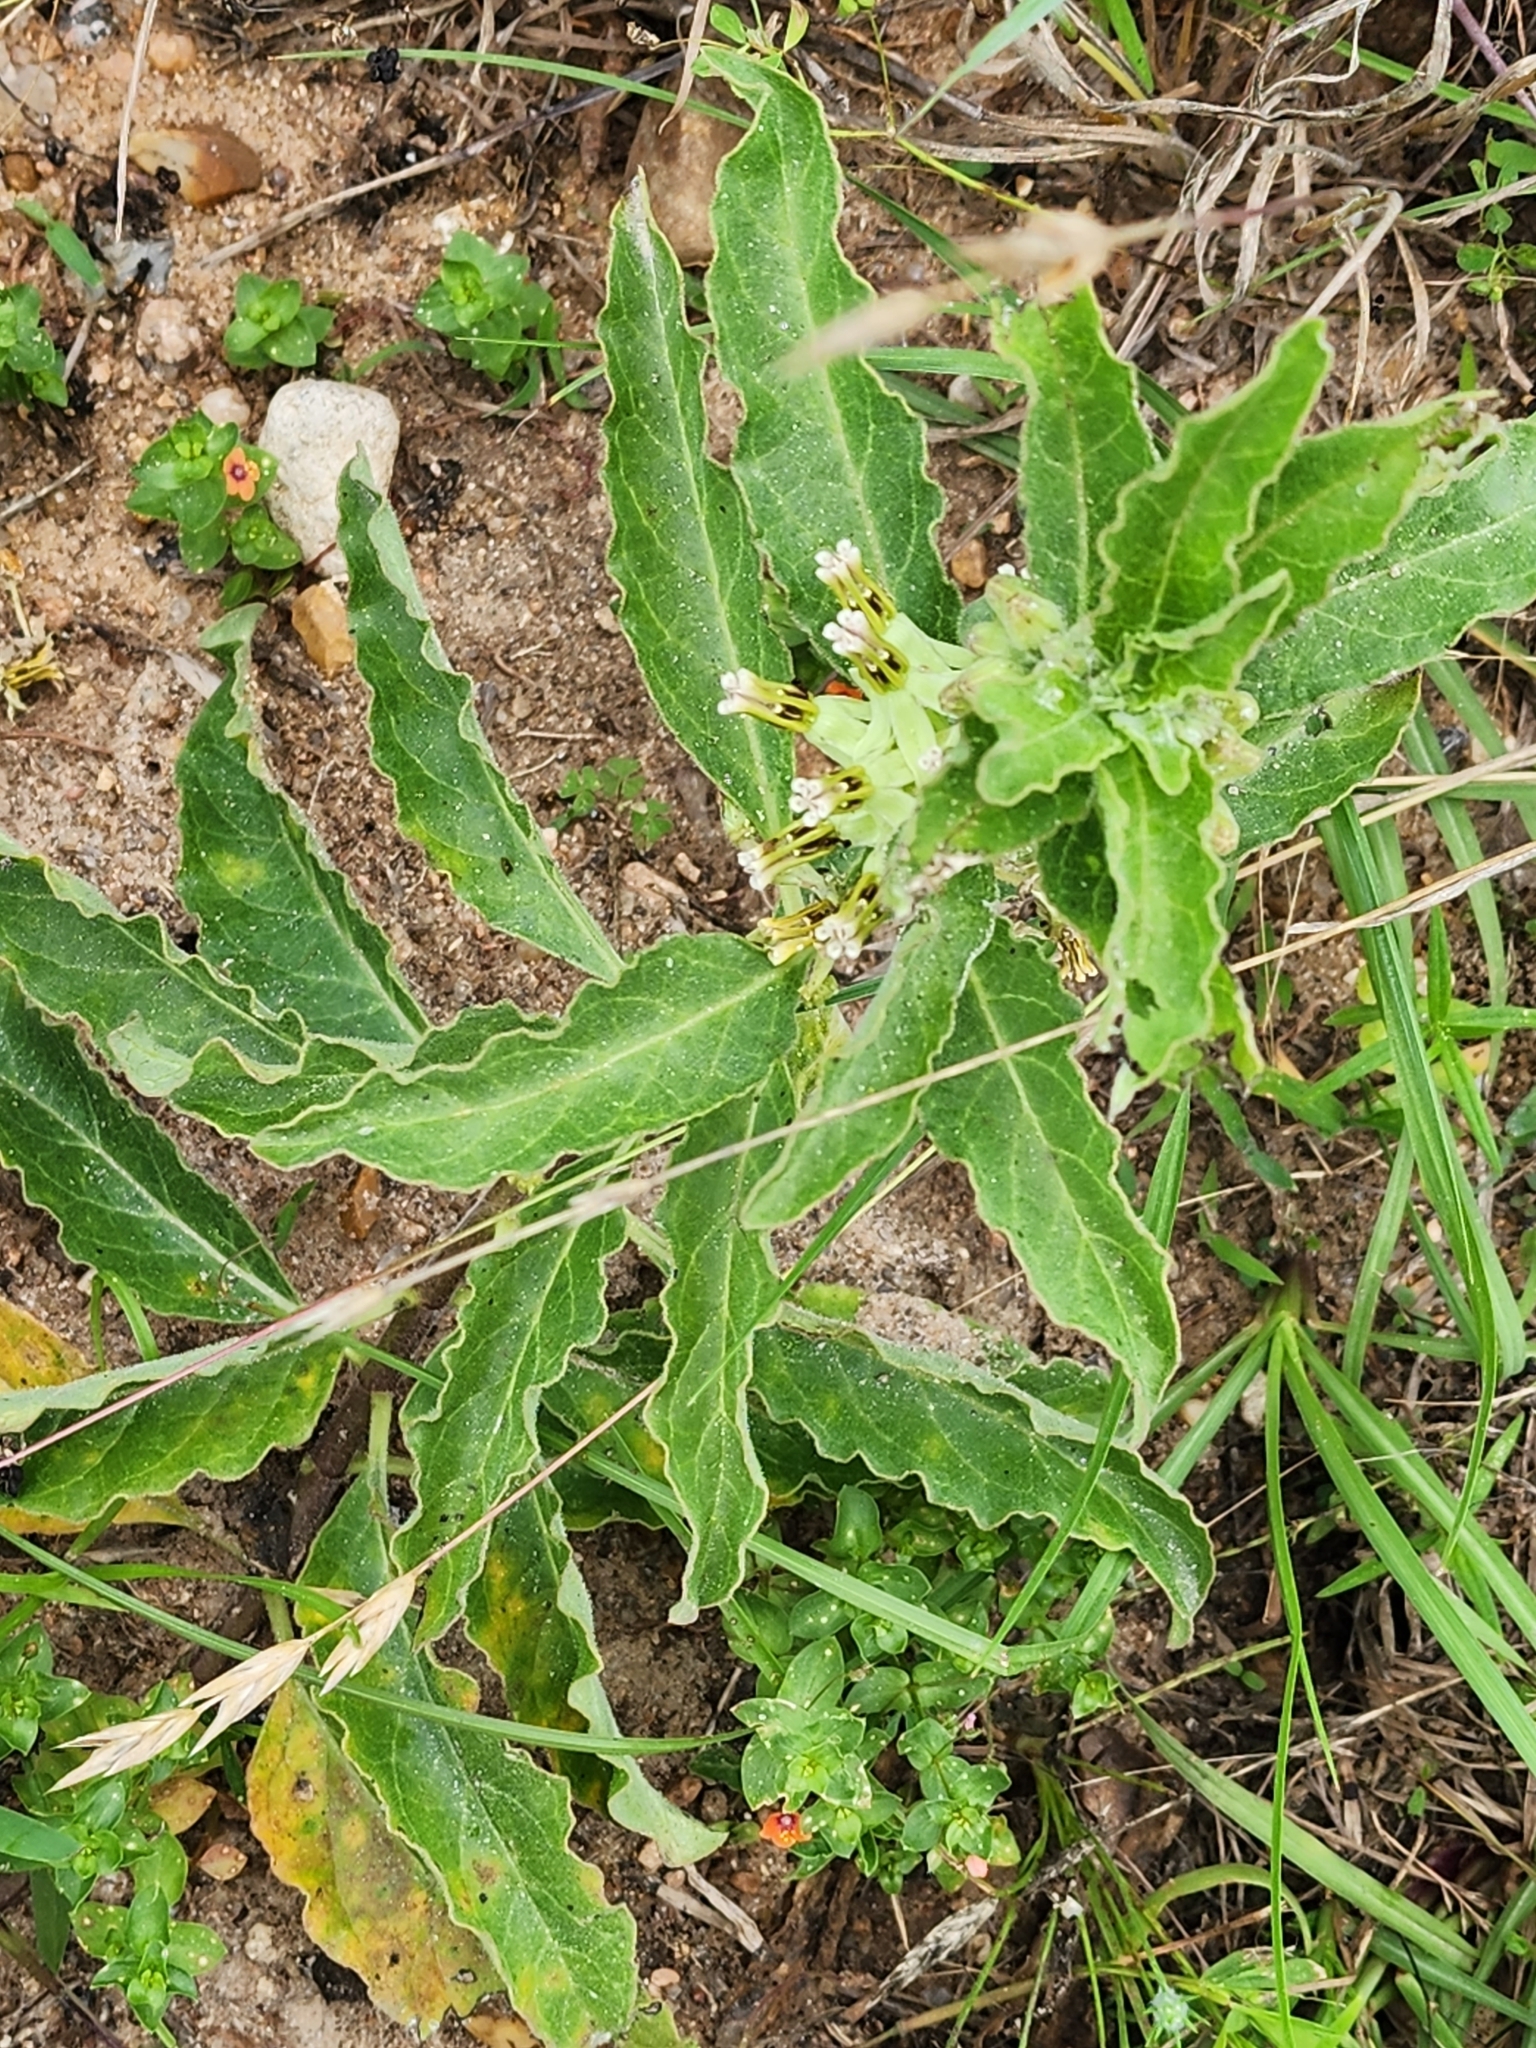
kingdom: Plantae
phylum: Tracheophyta
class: Magnoliopsida
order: Gentianales
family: Apocynaceae
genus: Asclepias
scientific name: Asclepias oenotheroides
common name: Zizotes milkweed
